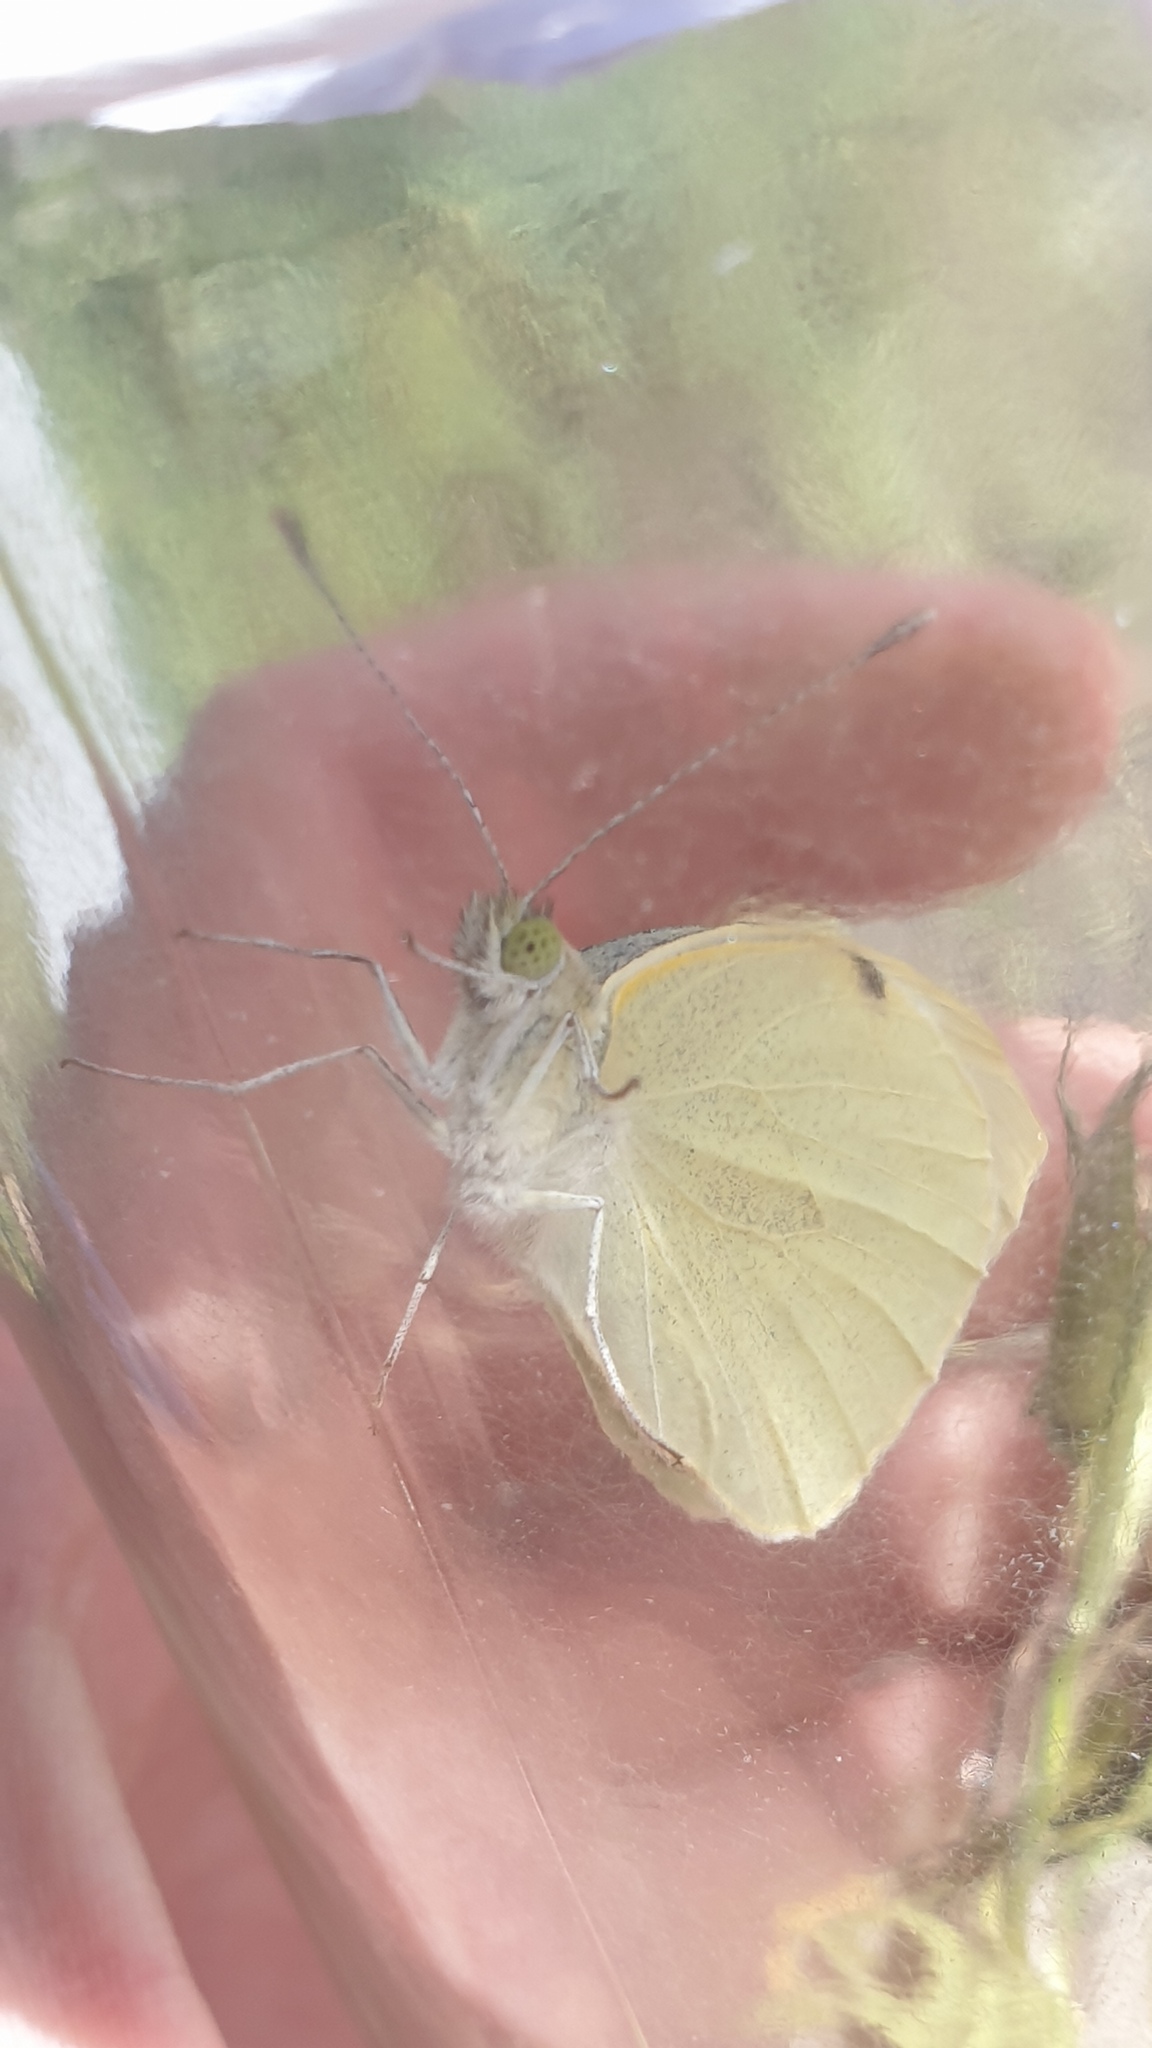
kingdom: Animalia
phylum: Arthropoda
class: Insecta
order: Lepidoptera
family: Pieridae
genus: Pieris
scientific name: Pieris brassicae
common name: Large white
